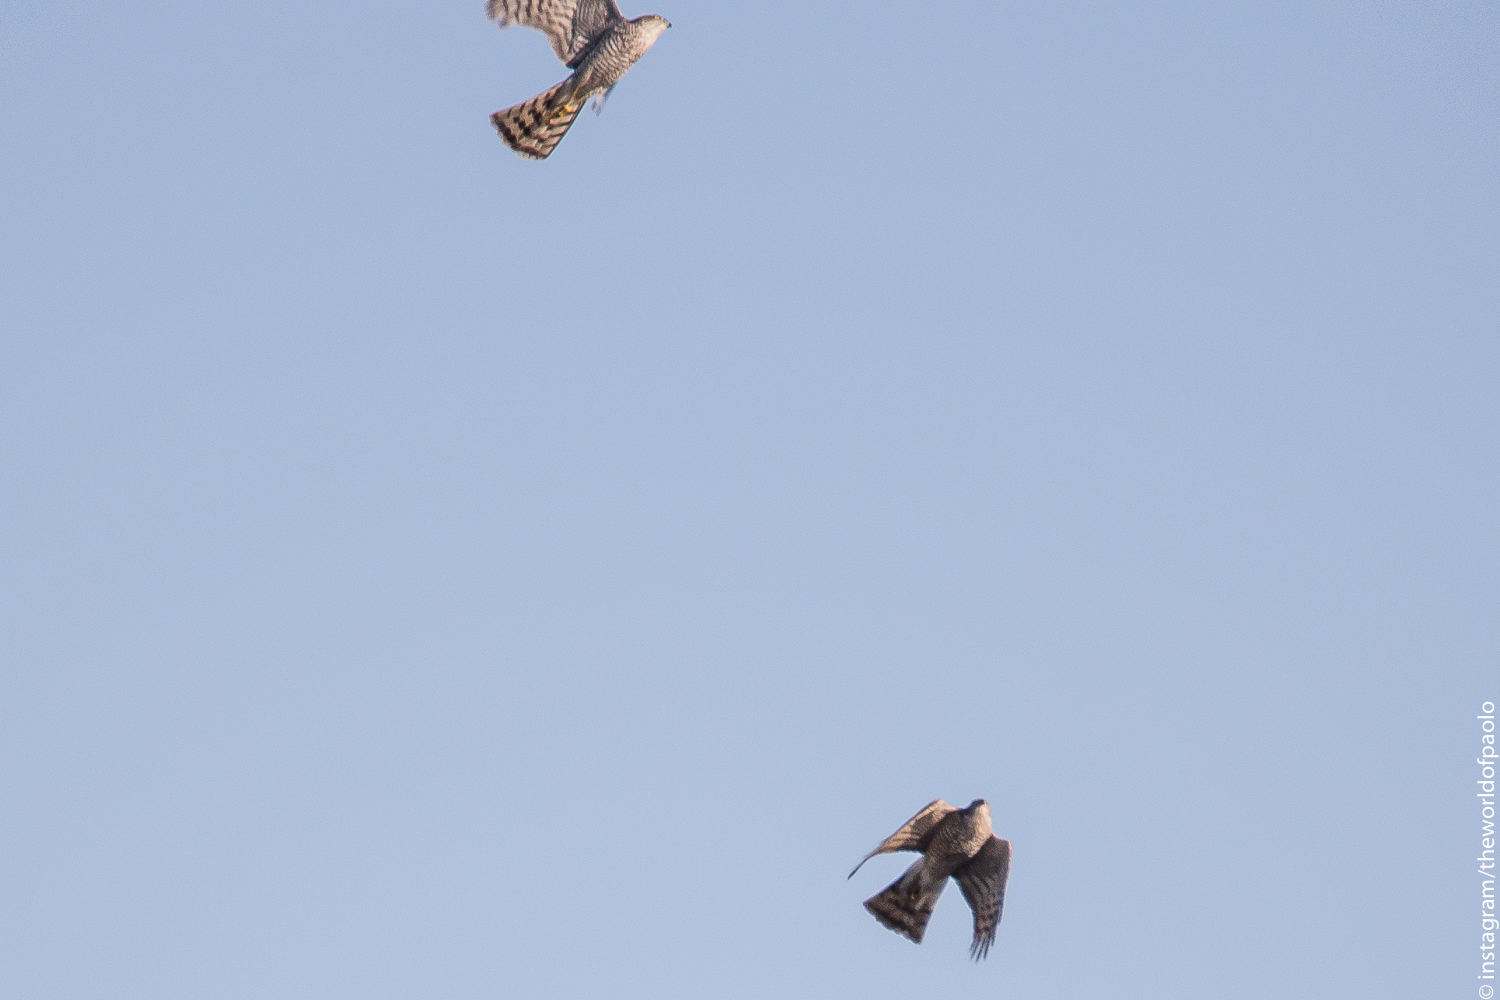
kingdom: Animalia
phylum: Chordata
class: Aves
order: Accipitriformes
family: Accipitridae
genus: Accipiter
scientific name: Accipiter nisus
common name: Eurasian sparrowhawk
